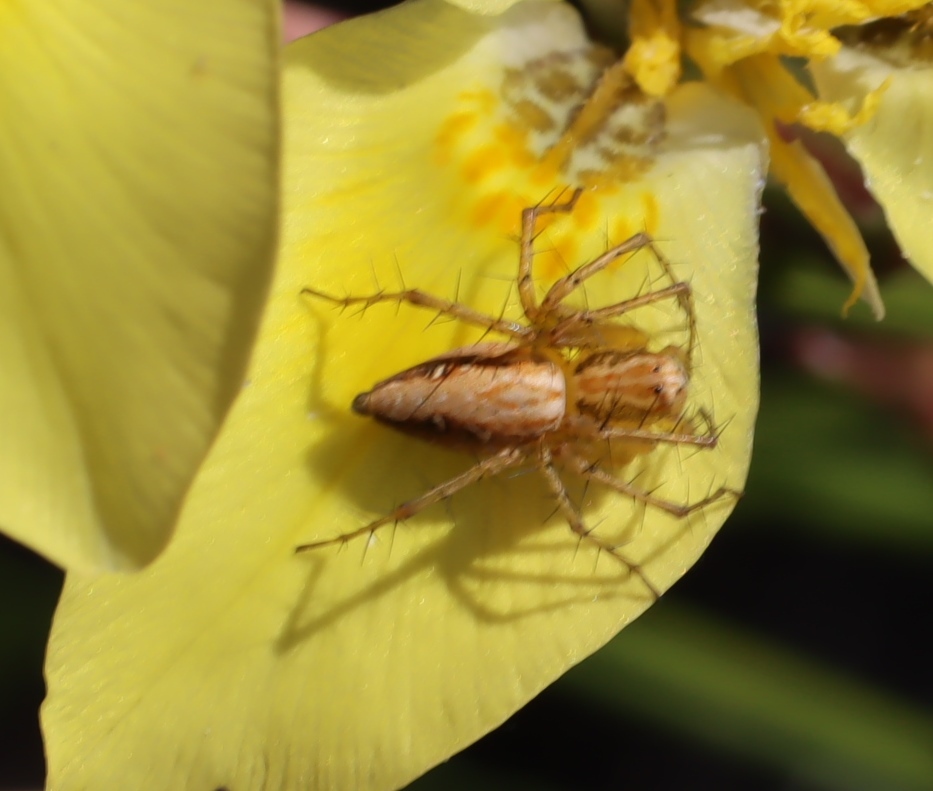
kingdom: Plantae
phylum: Tracheophyta
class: Liliopsida
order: Asparagales
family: Iridaceae
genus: Moraea
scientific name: Moraea fugax
